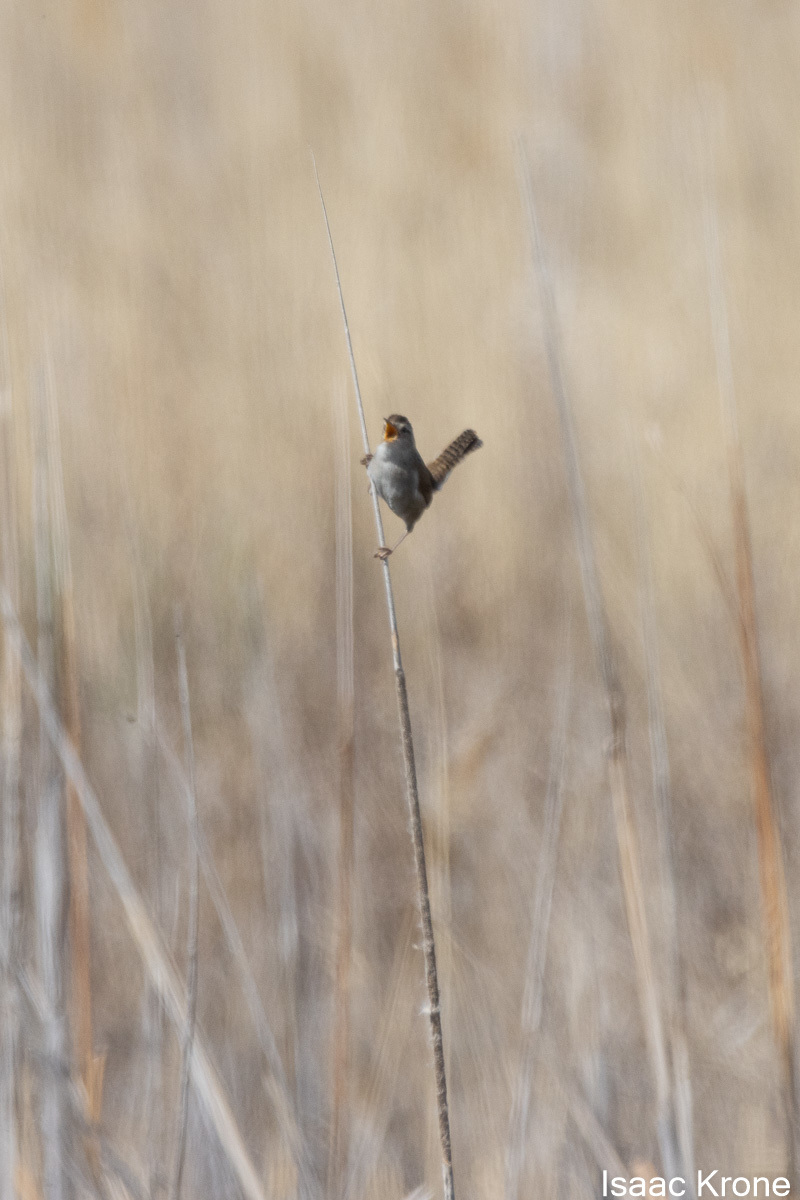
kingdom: Animalia
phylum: Chordata
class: Aves
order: Passeriformes
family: Troglodytidae
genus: Cistothorus
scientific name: Cistothorus palustris
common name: Marsh wren
